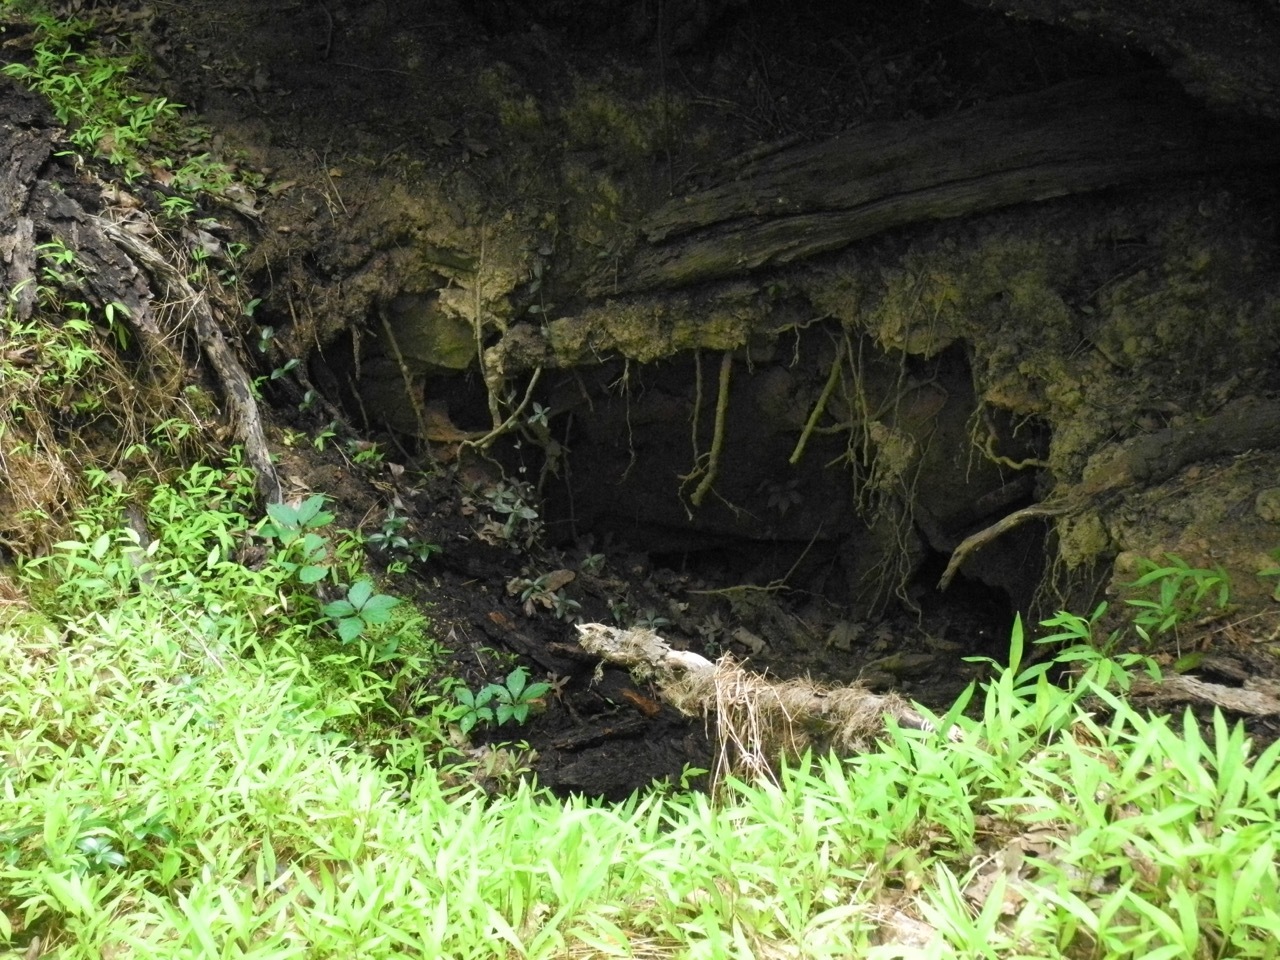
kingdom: Plantae
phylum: Tracheophyta
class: Polypodiopsida
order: Polypodiales
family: Aspleniaceae
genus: Asplenium
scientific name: Asplenium platyneuron
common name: Ebony spleenwort
